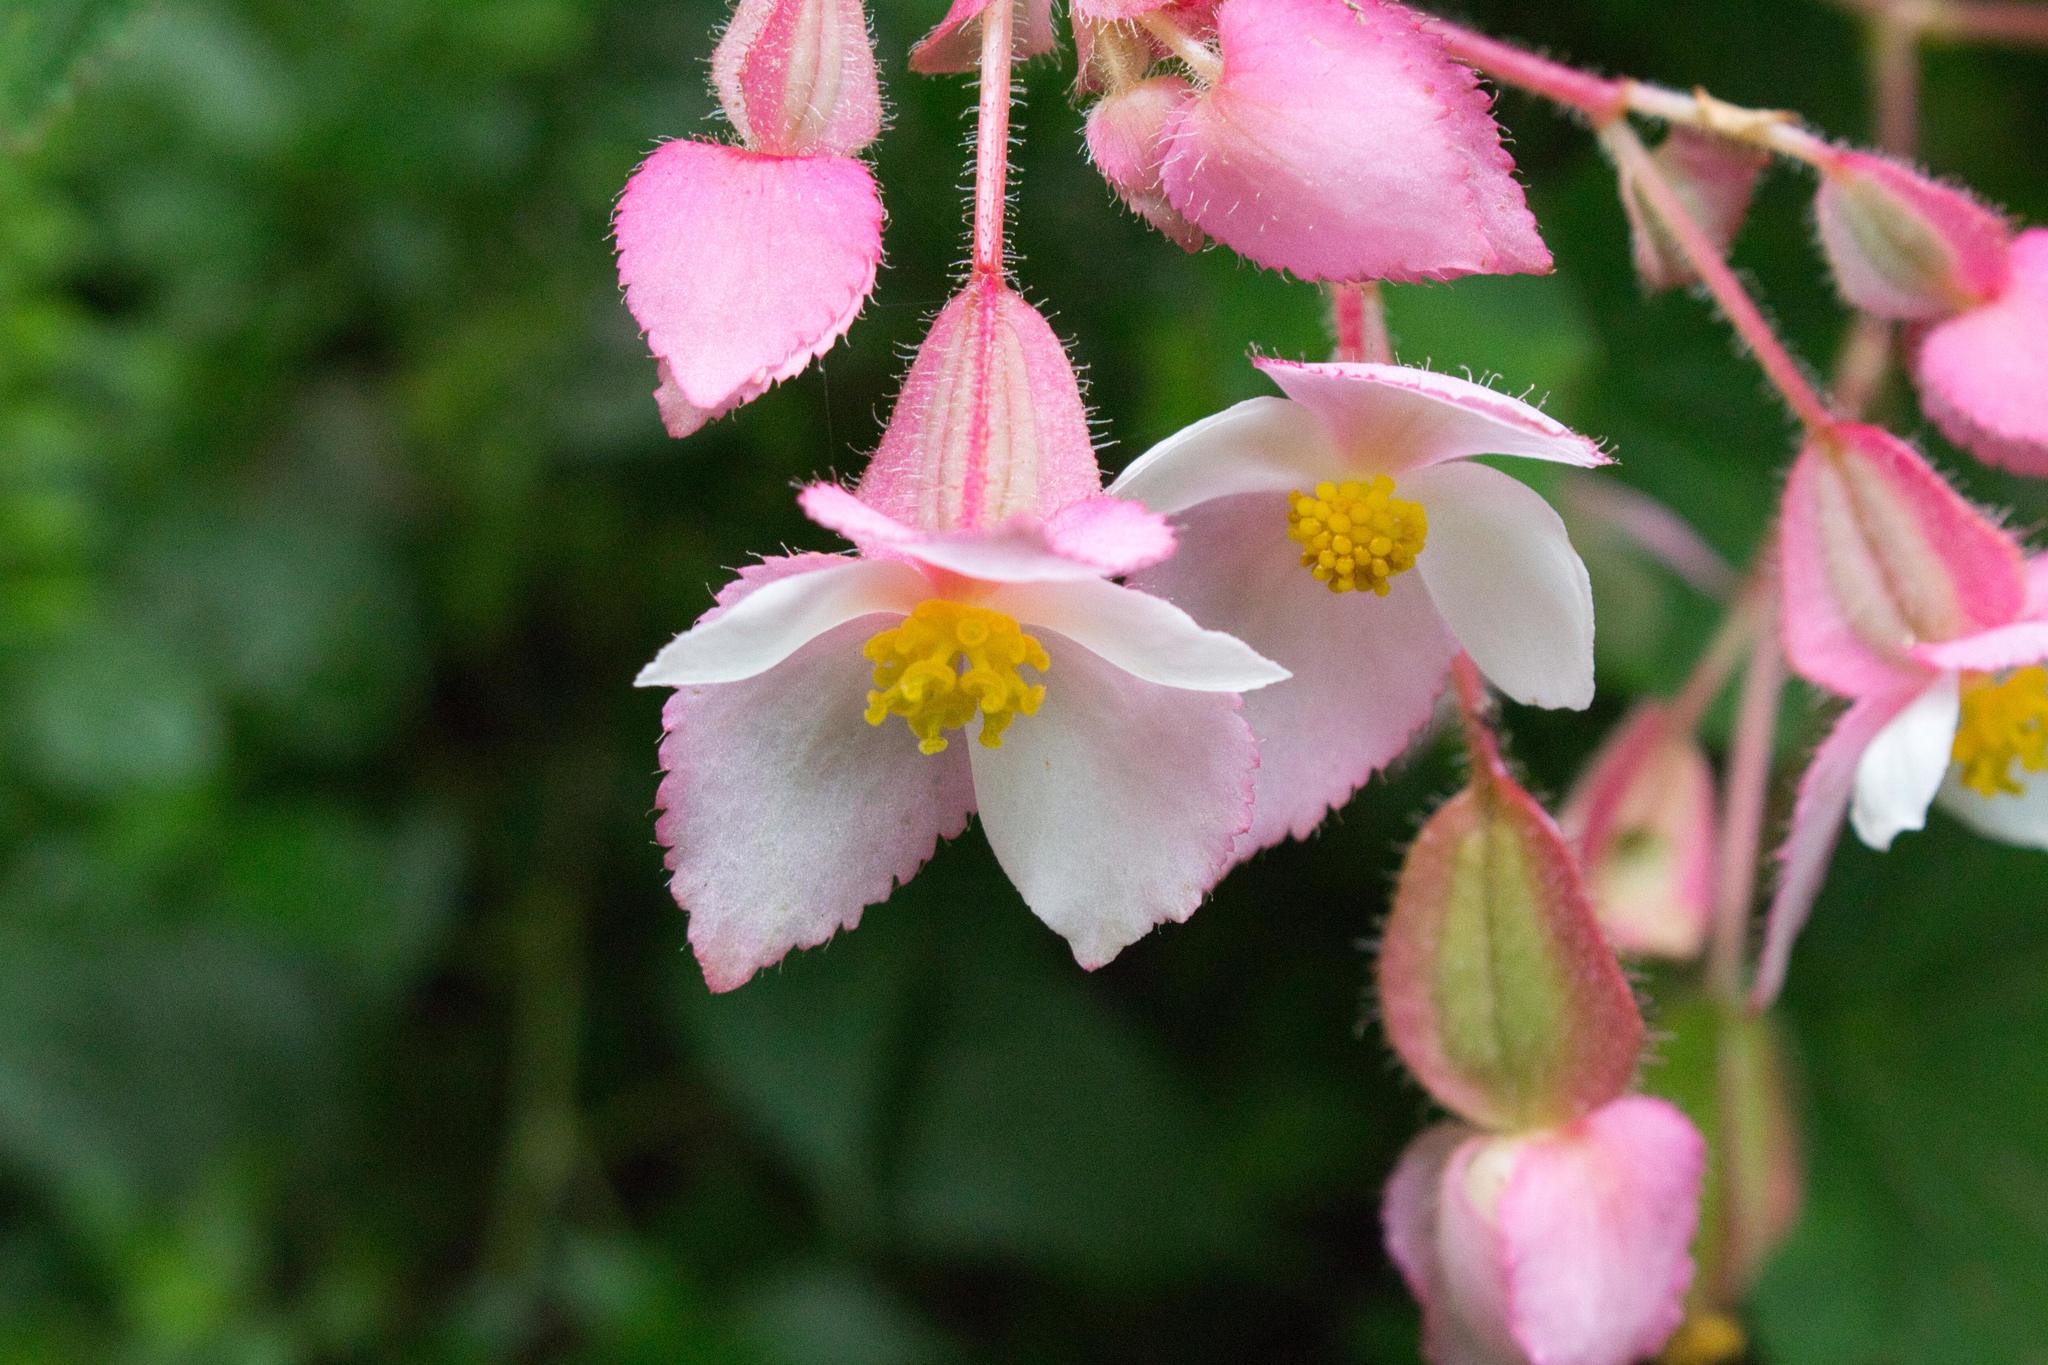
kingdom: Plantae
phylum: Tracheophyta
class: Magnoliopsida
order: Cucurbitales
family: Begoniaceae
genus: Begonia
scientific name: Begonia ignea
